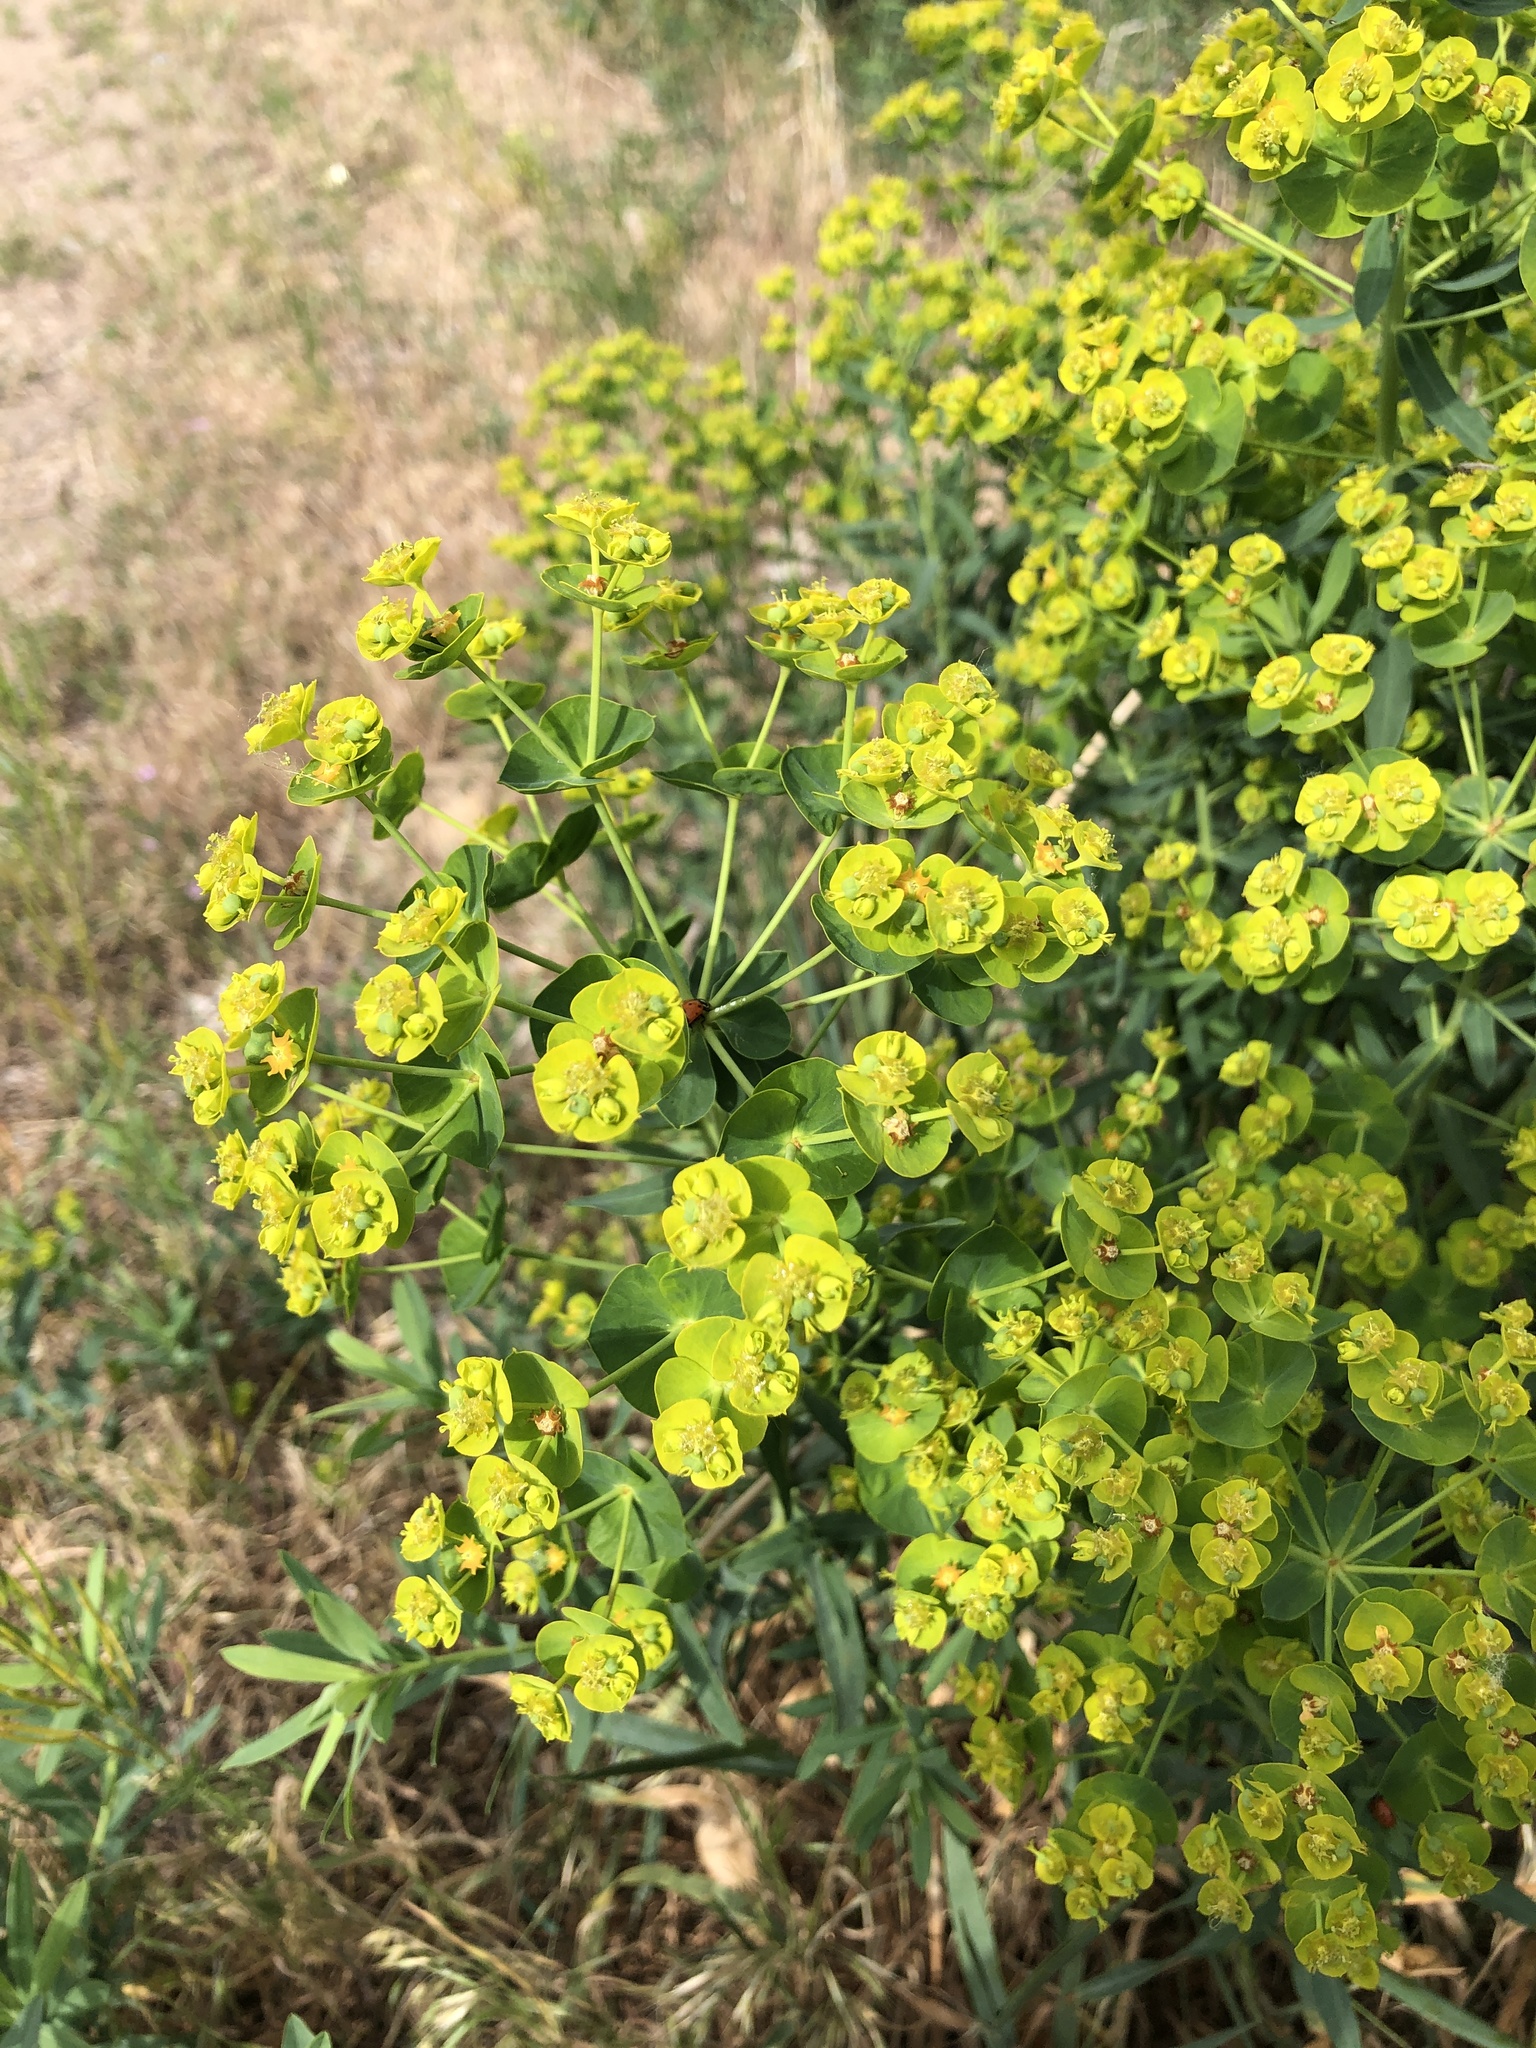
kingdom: Plantae
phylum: Tracheophyta
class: Magnoliopsida
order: Malpighiales
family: Euphorbiaceae
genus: Euphorbia
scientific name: Euphorbia virgata
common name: Leafy spurge
